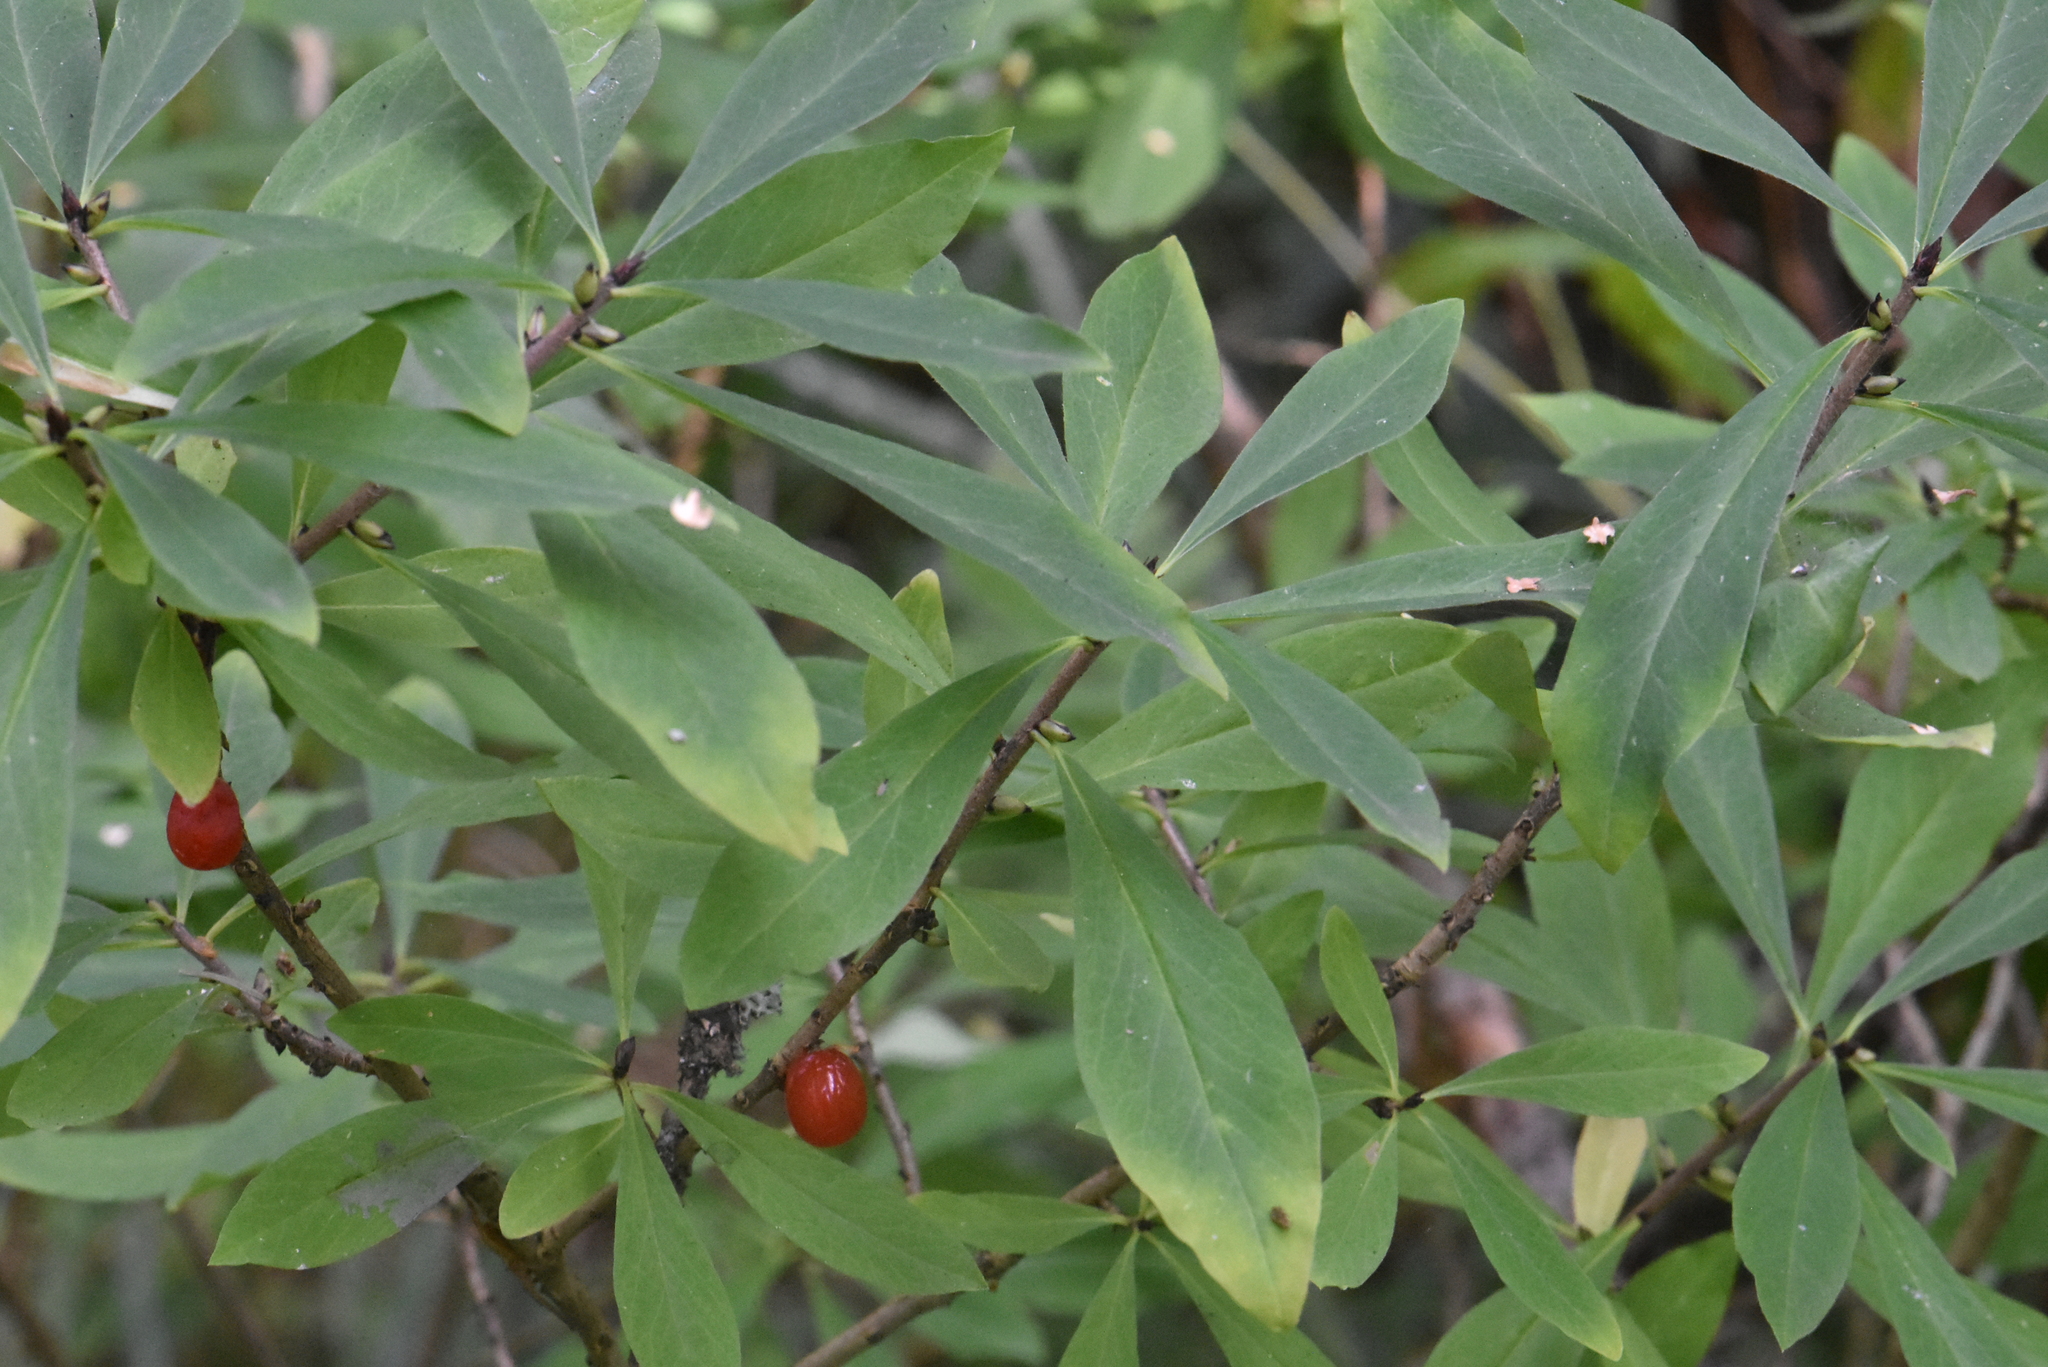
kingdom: Plantae
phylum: Tracheophyta
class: Magnoliopsida
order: Malvales
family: Thymelaeaceae
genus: Daphne
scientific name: Daphne mezereum
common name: Mezereon
